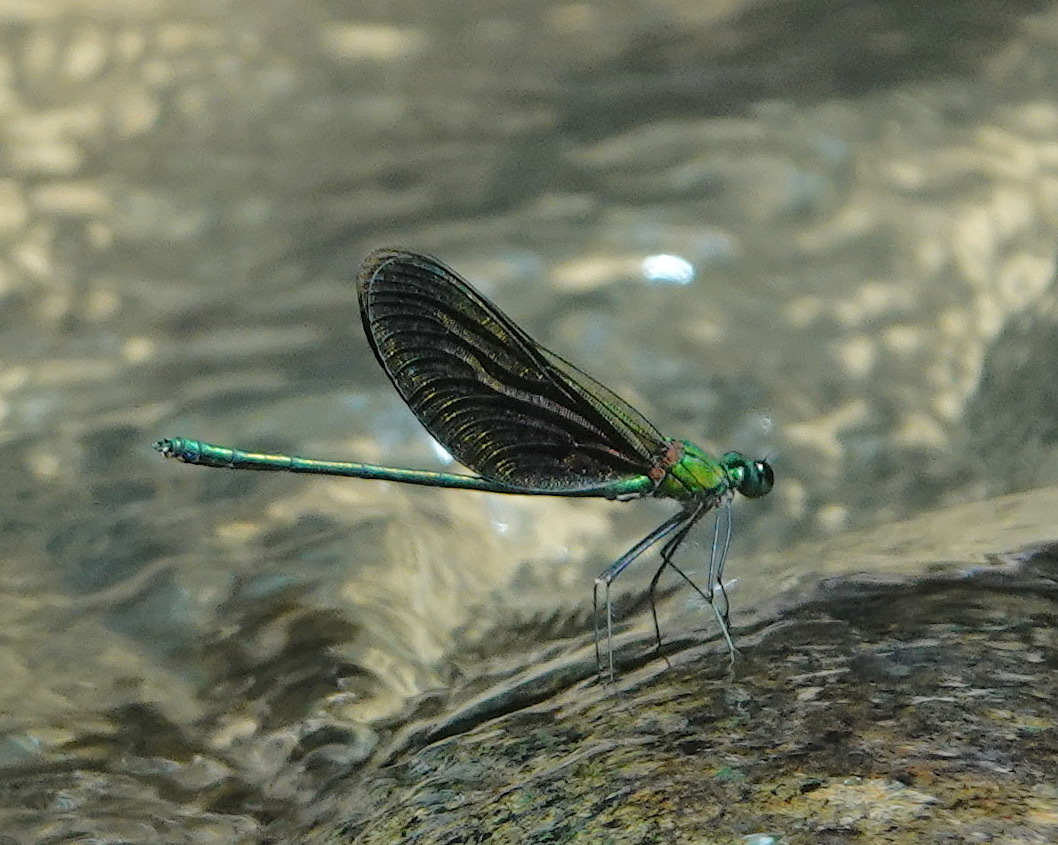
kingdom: Animalia
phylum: Arthropoda
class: Insecta
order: Odonata
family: Calopterygidae
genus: Neurobasis
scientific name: Neurobasis chinensis
